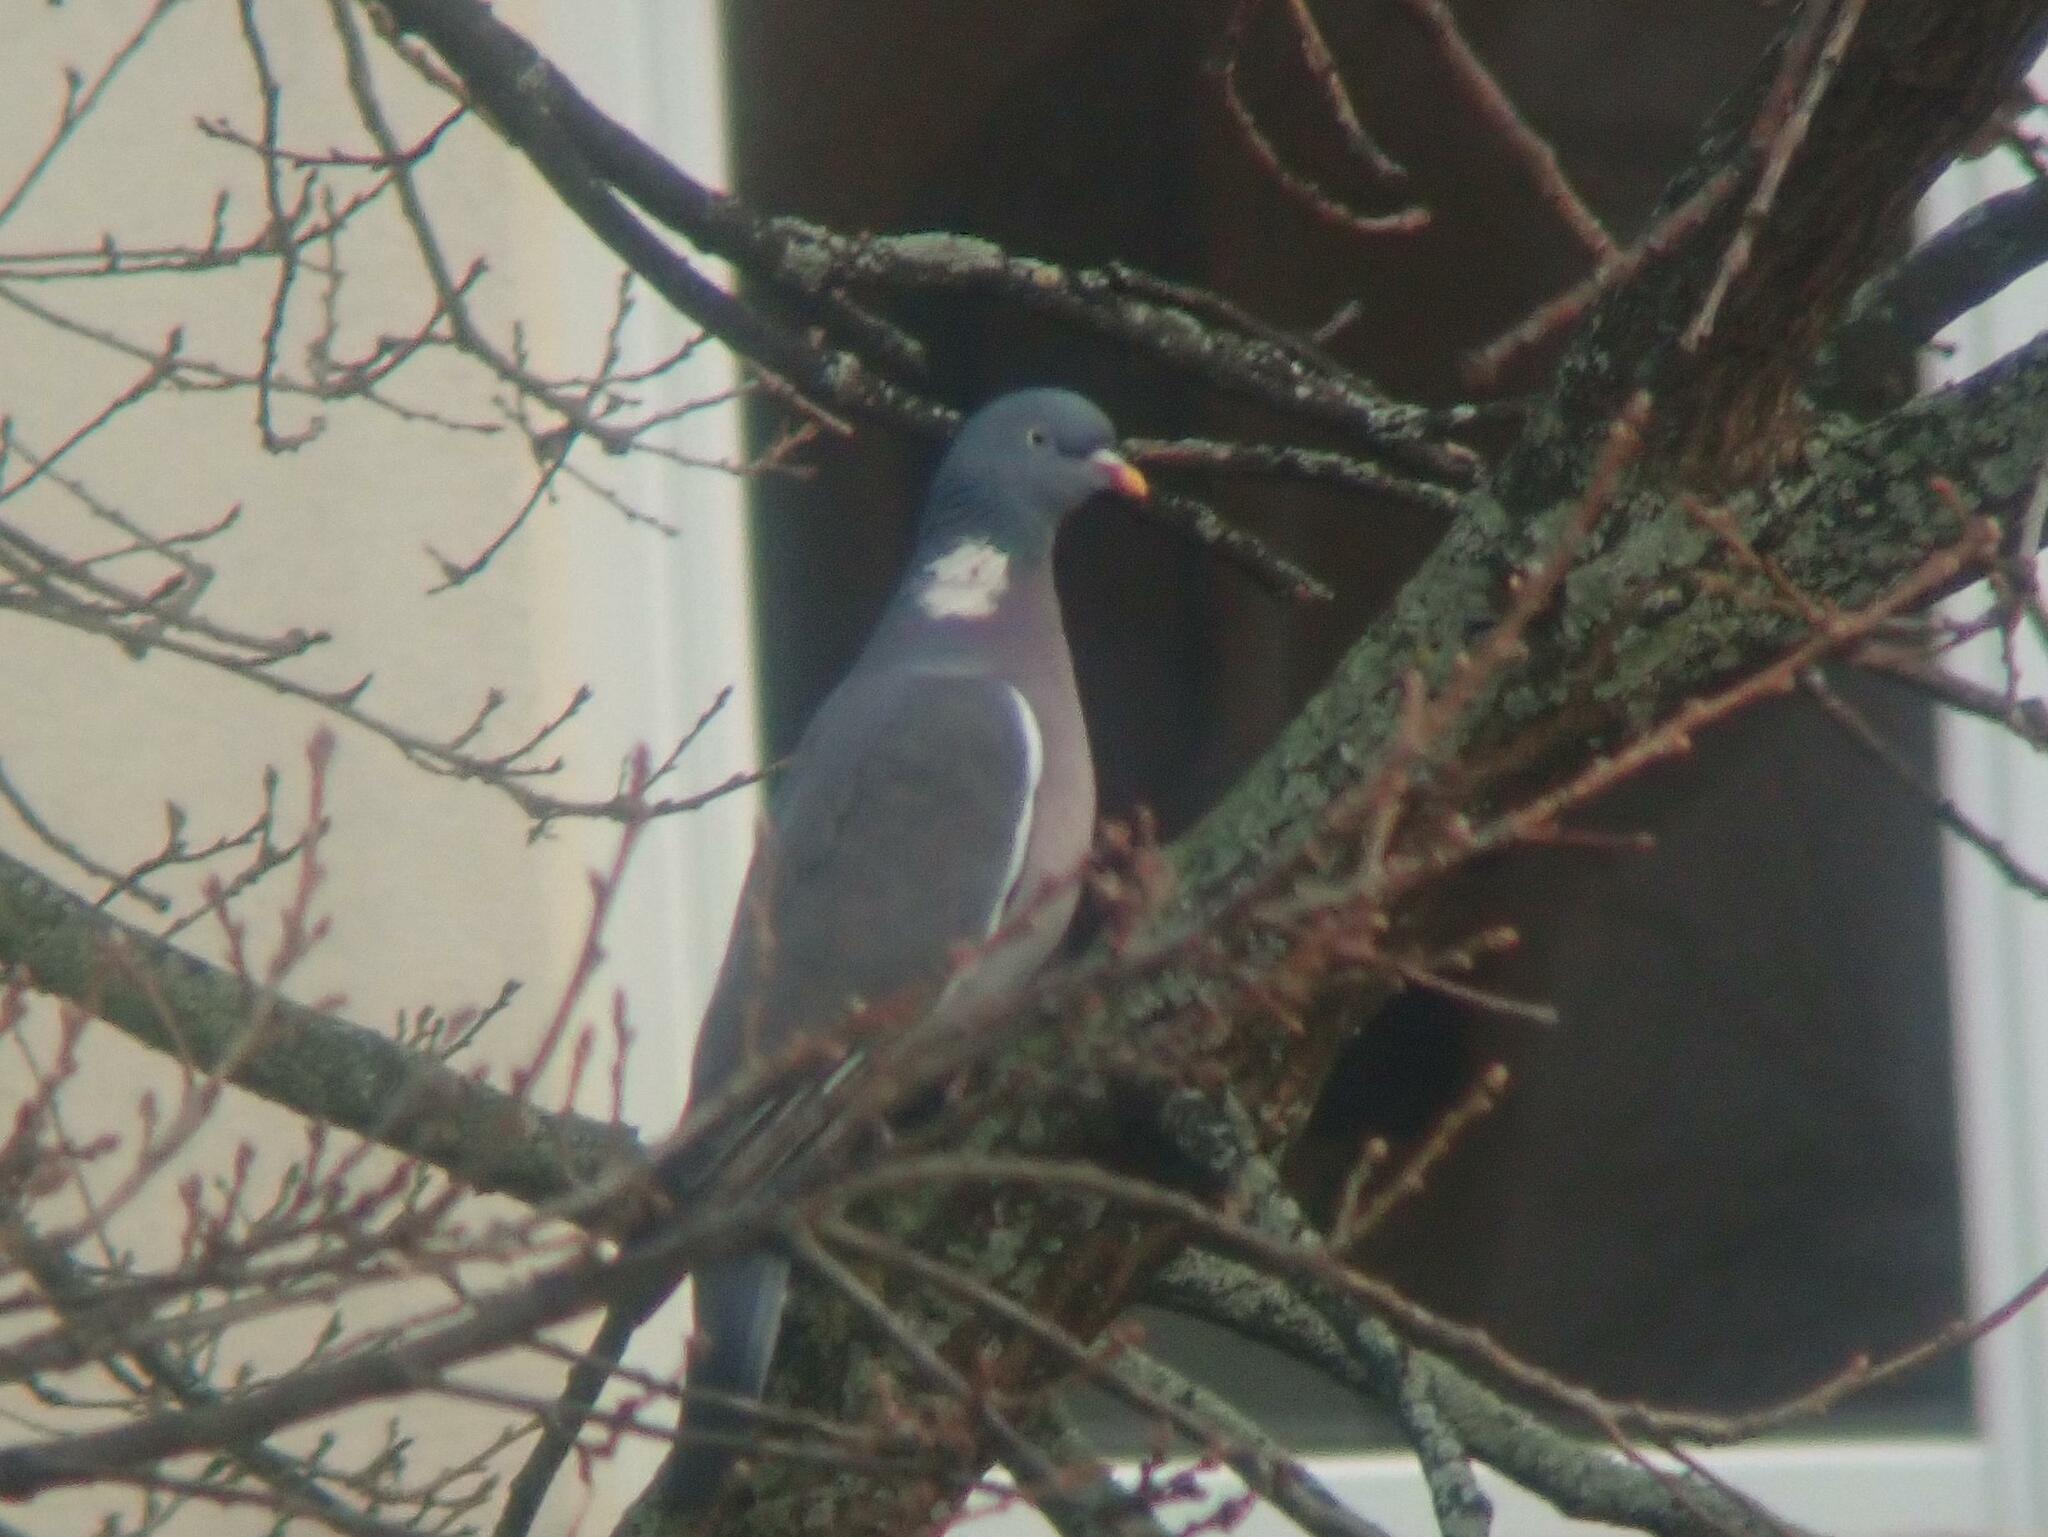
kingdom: Animalia
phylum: Chordata
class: Aves
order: Columbiformes
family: Columbidae
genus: Columba
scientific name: Columba palumbus
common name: Common wood pigeon
